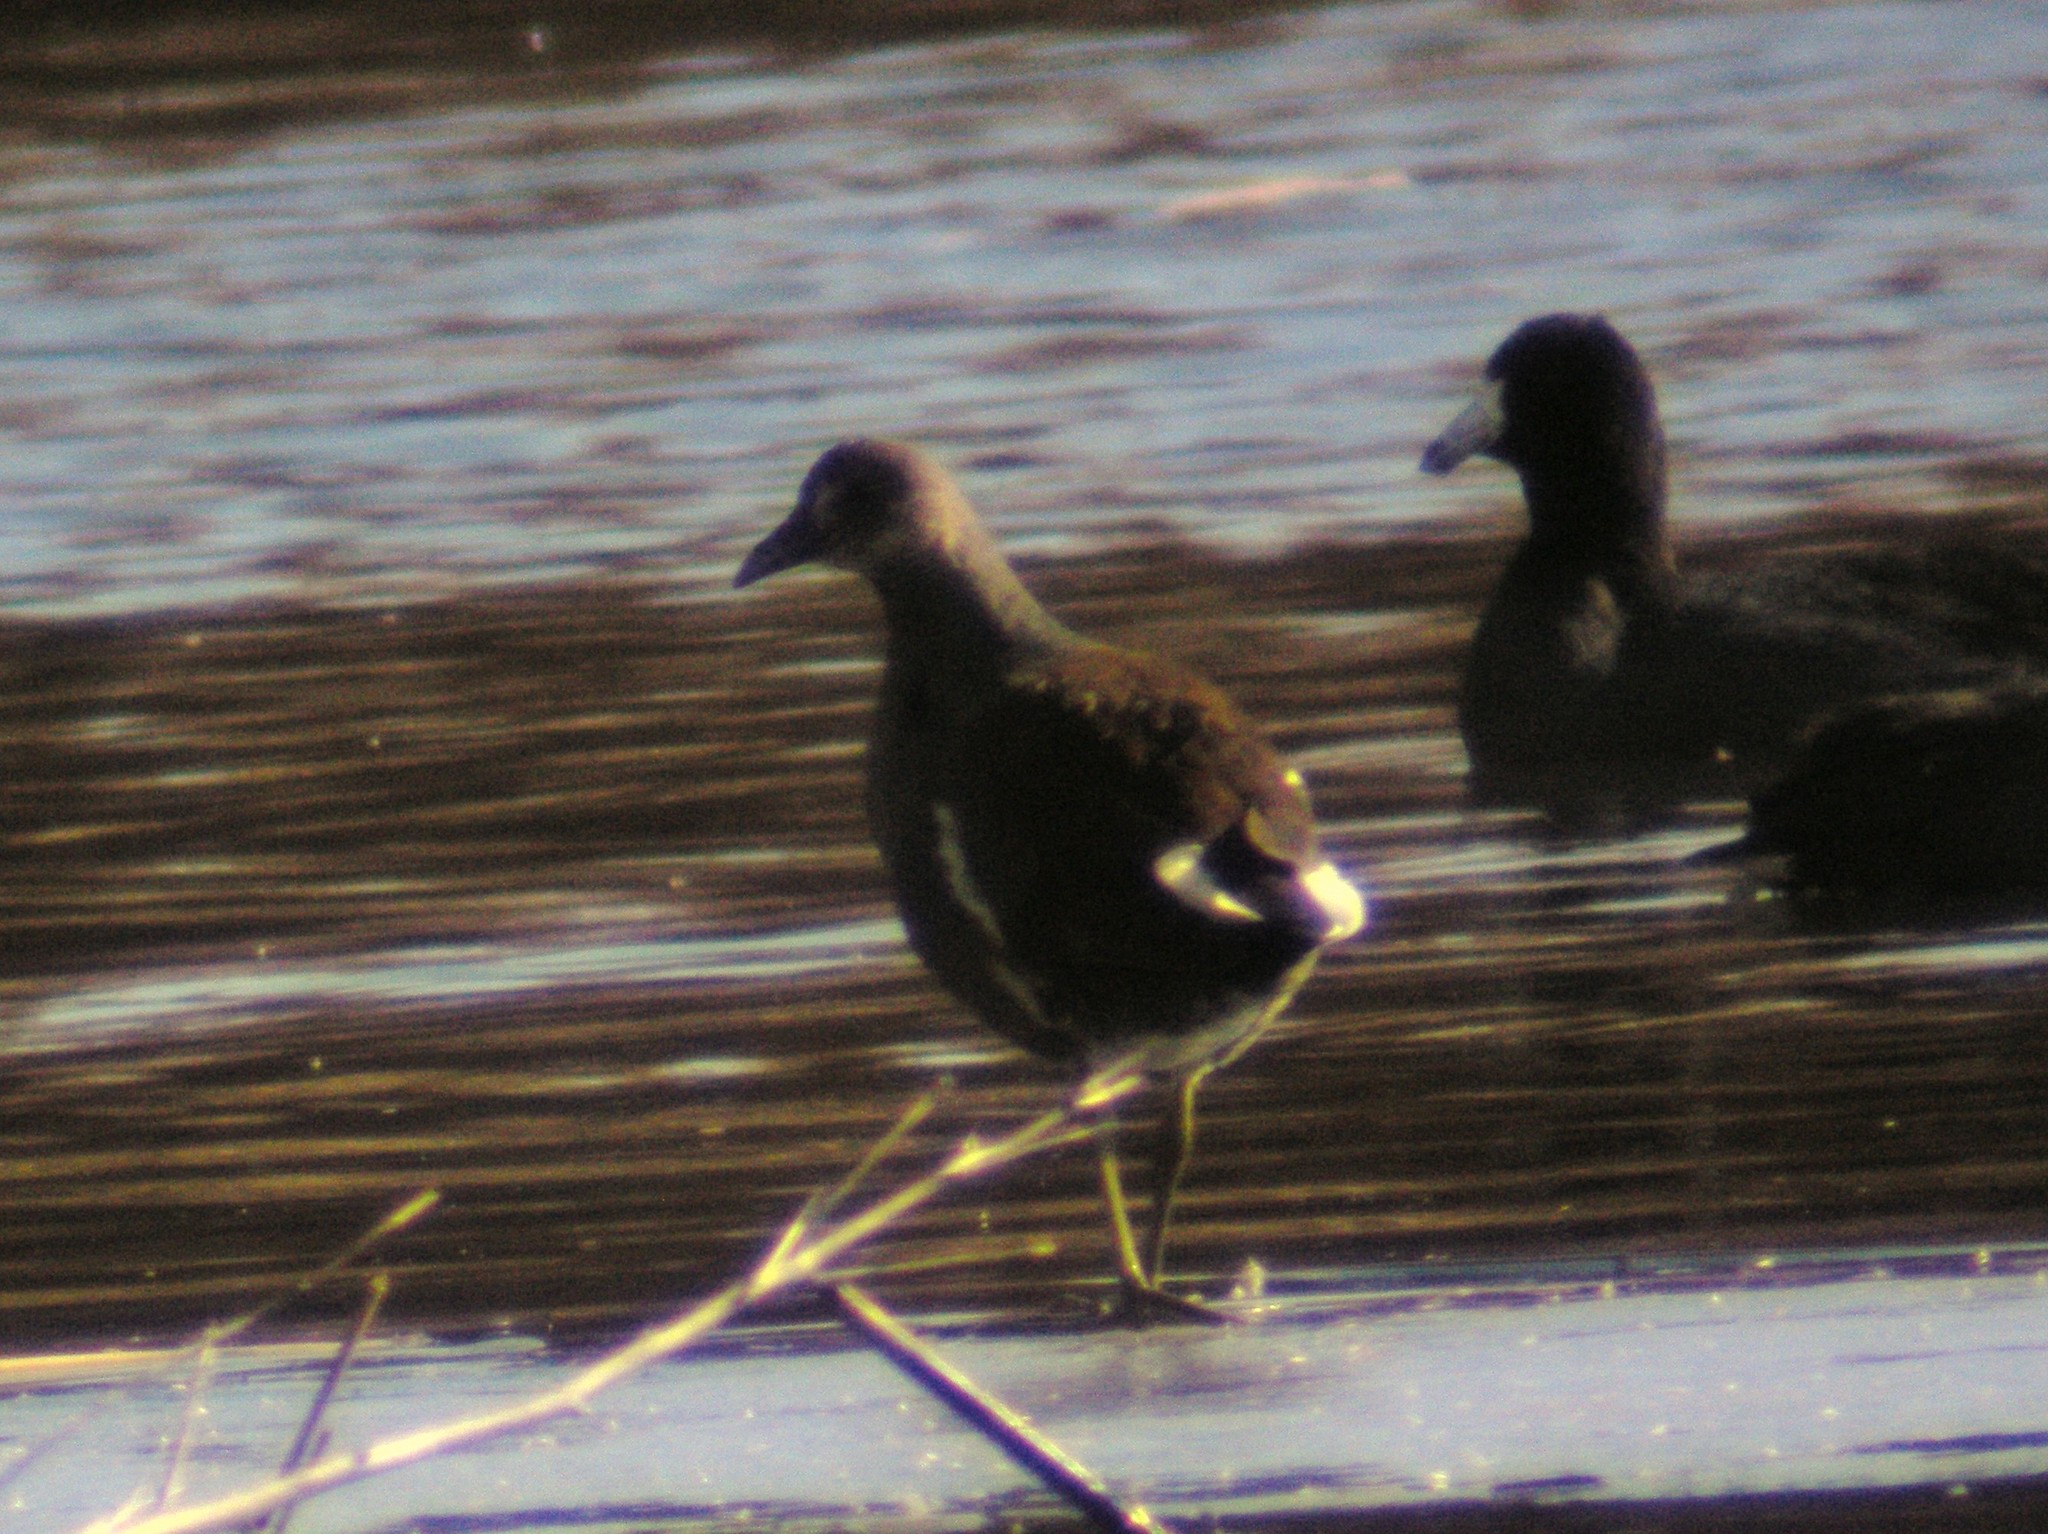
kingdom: Animalia
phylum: Chordata
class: Aves
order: Gruiformes
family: Rallidae
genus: Gallinula
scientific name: Gallinula chloropus
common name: Common moorhen
